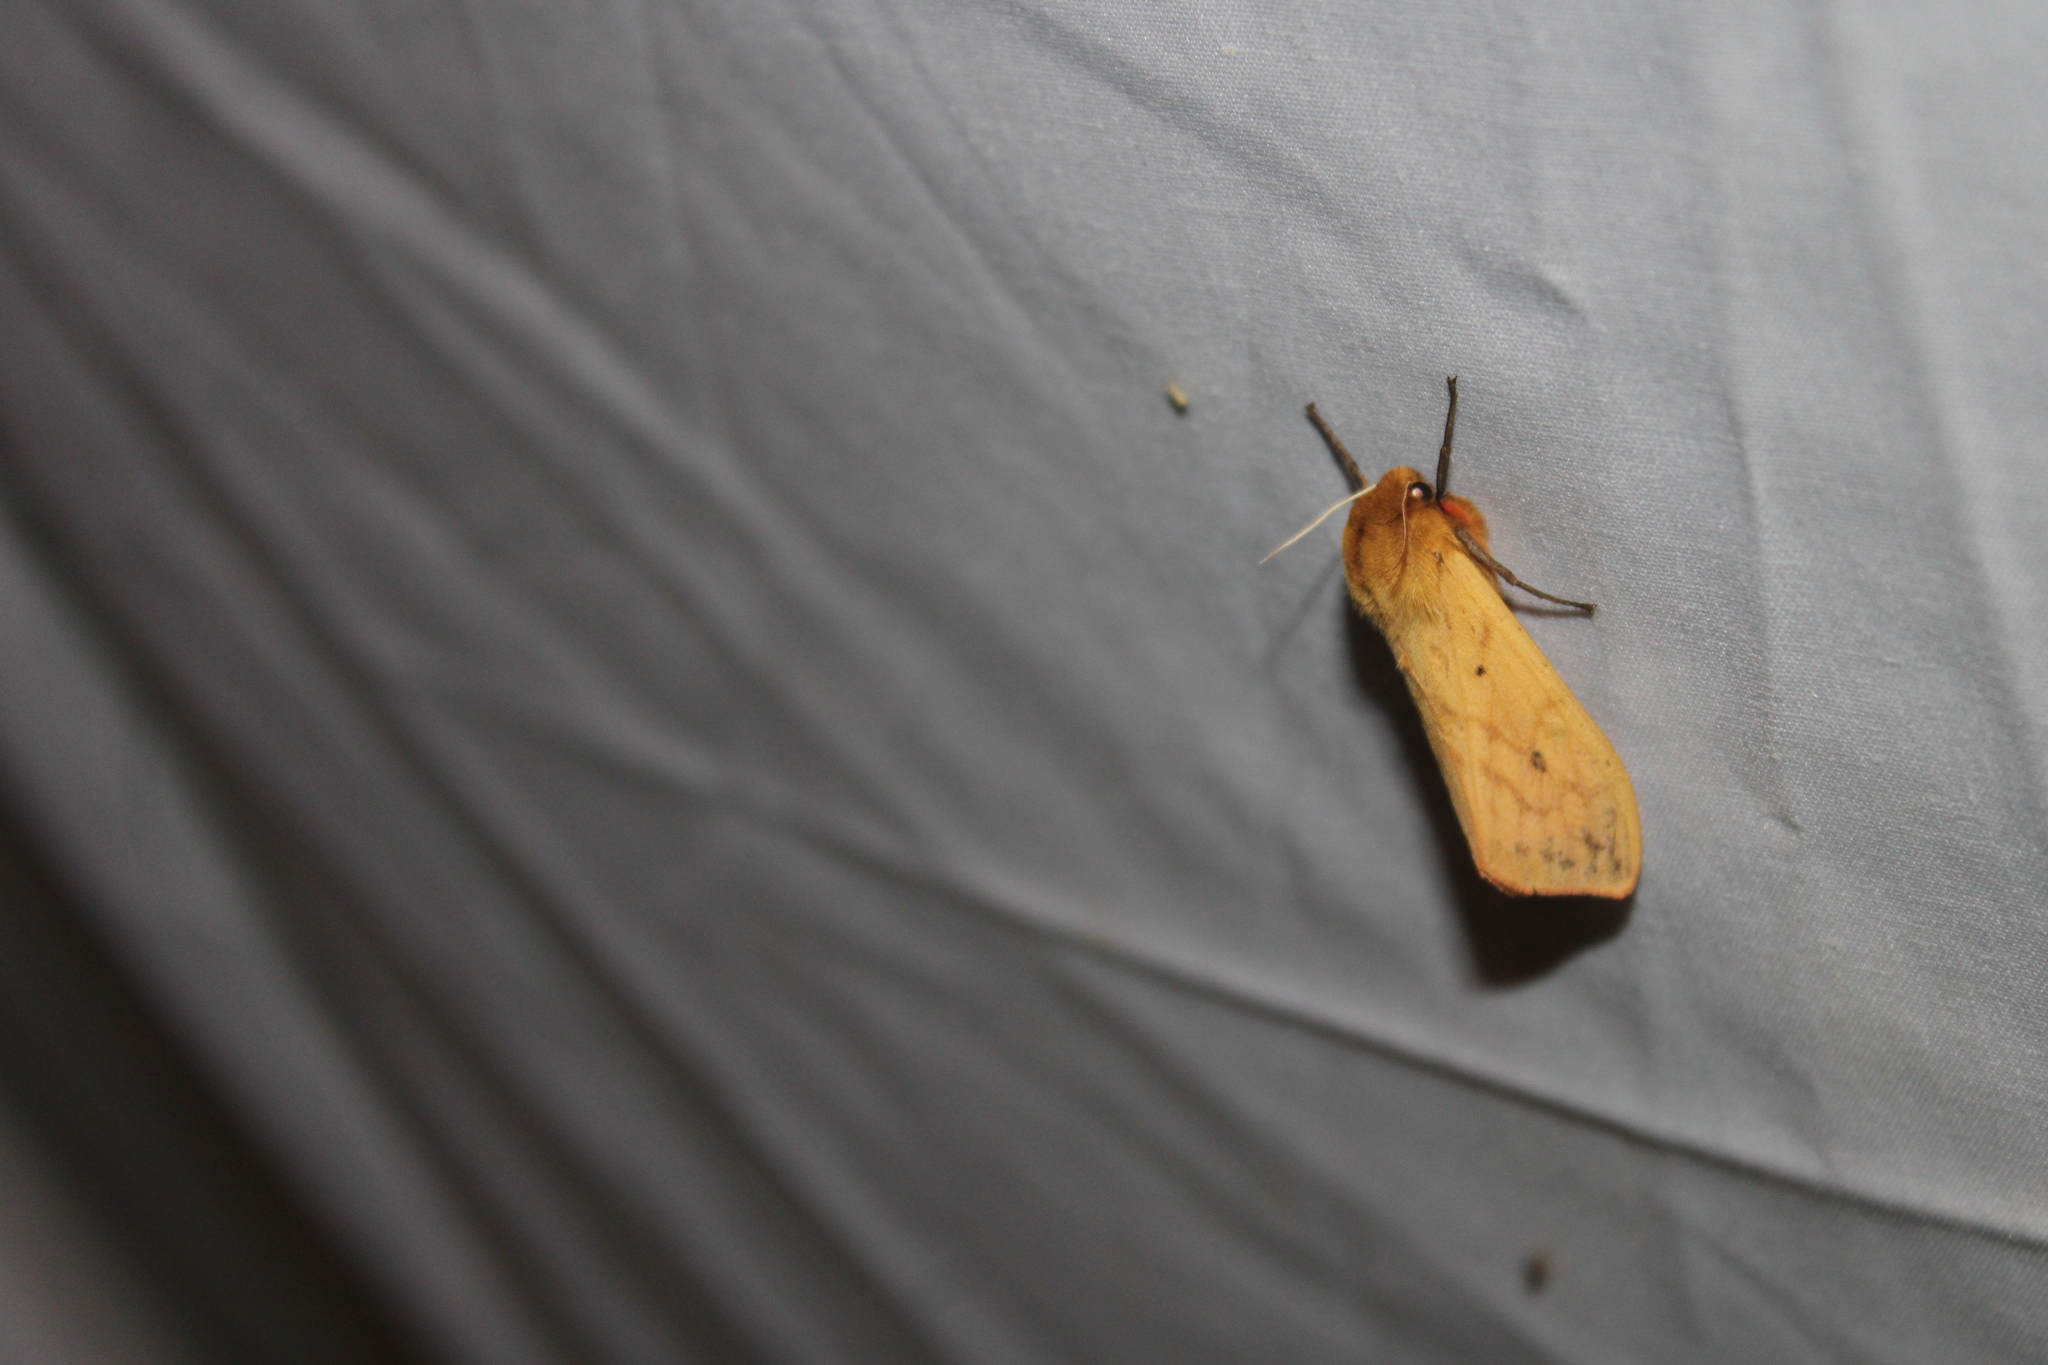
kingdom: Animalia
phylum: Arthropoda
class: Insecta
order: Lepidoptera
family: Erebidae
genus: Pyrrharctia
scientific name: Pyrrharctia isabella
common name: Isabella tiger moth
